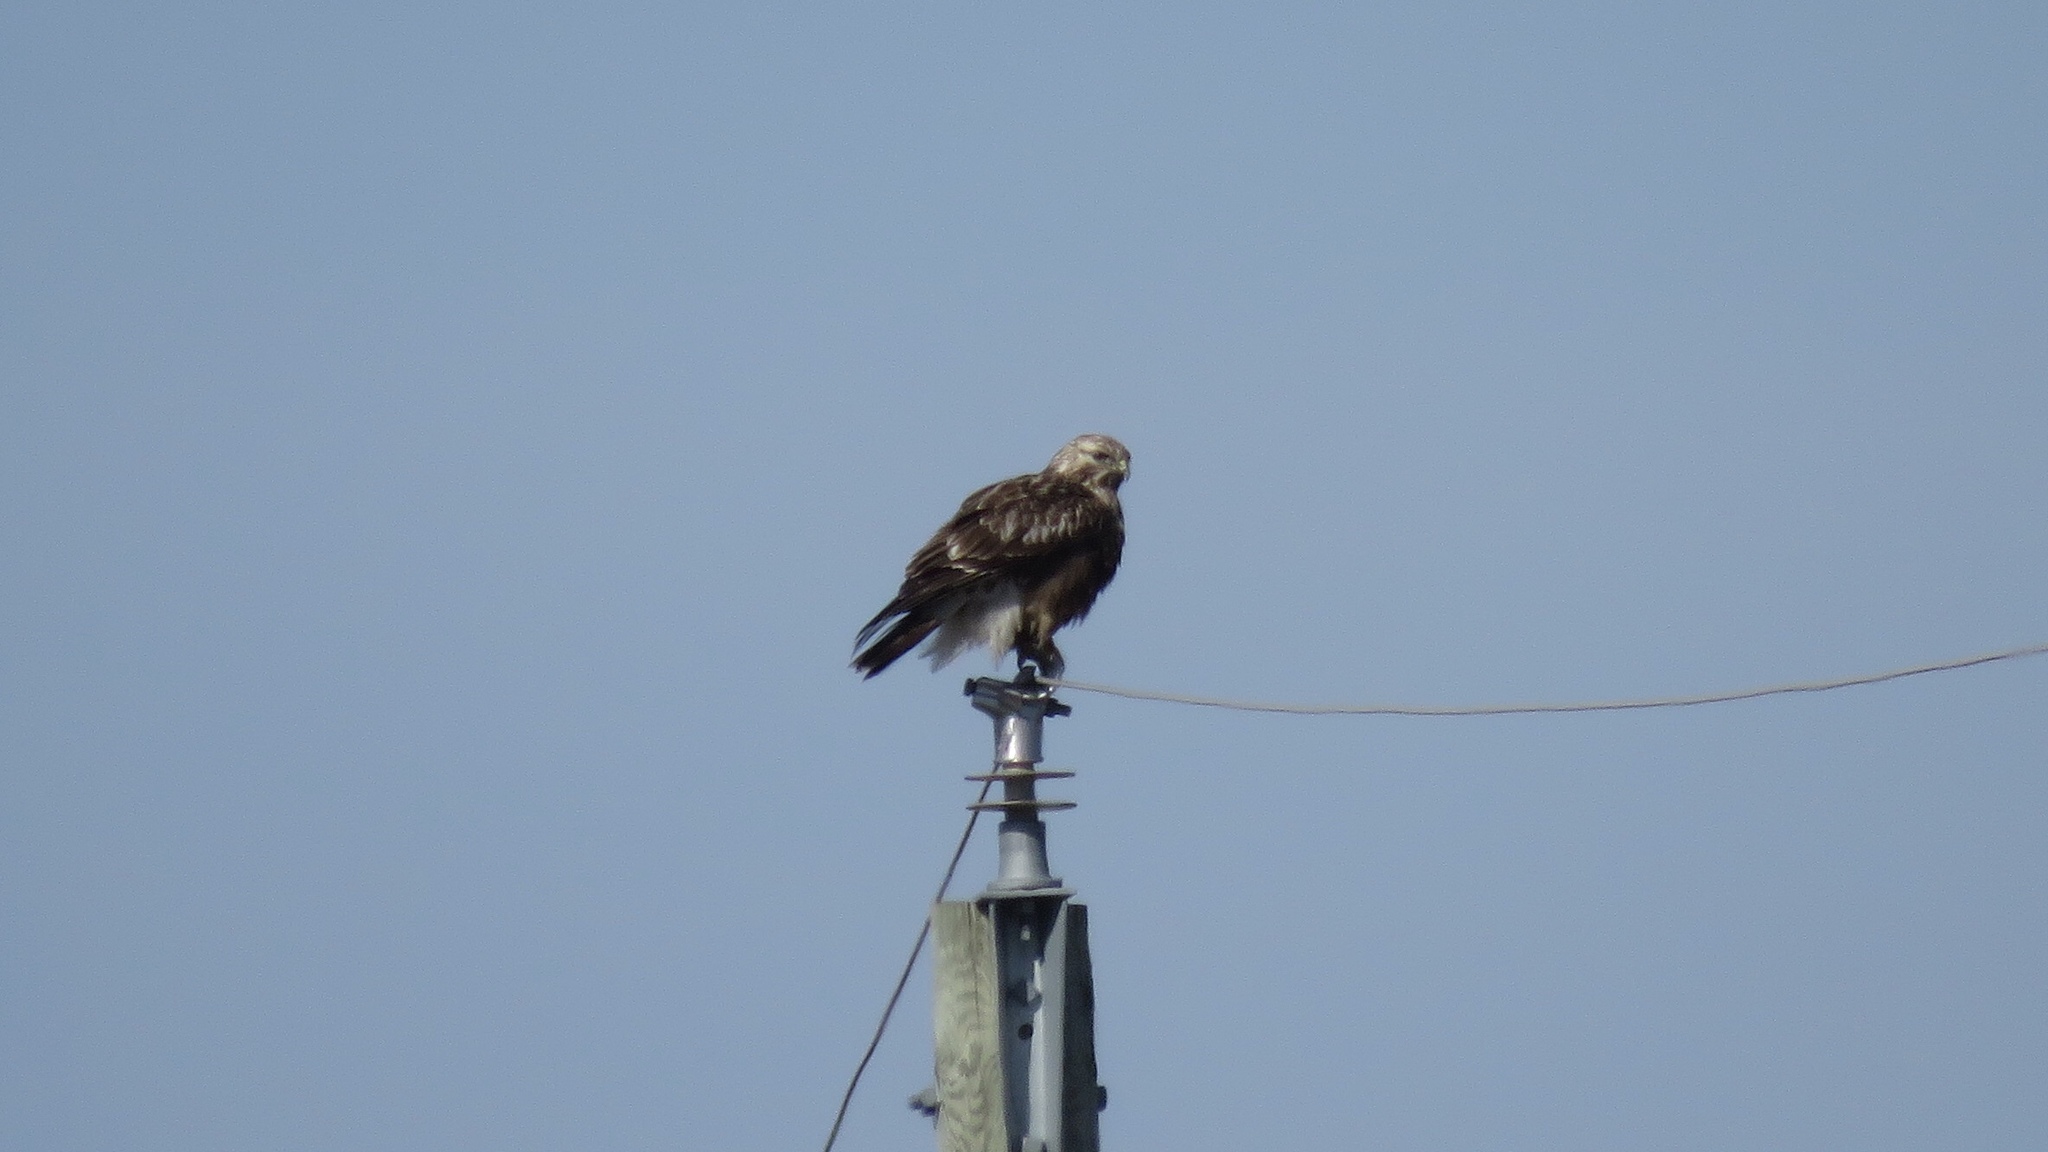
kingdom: Animalia
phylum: Chordata
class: Aves
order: Accipitriformes
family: Accipitridae
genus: Buteo
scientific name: Buteo lagopus
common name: Rough-legged buzzard
